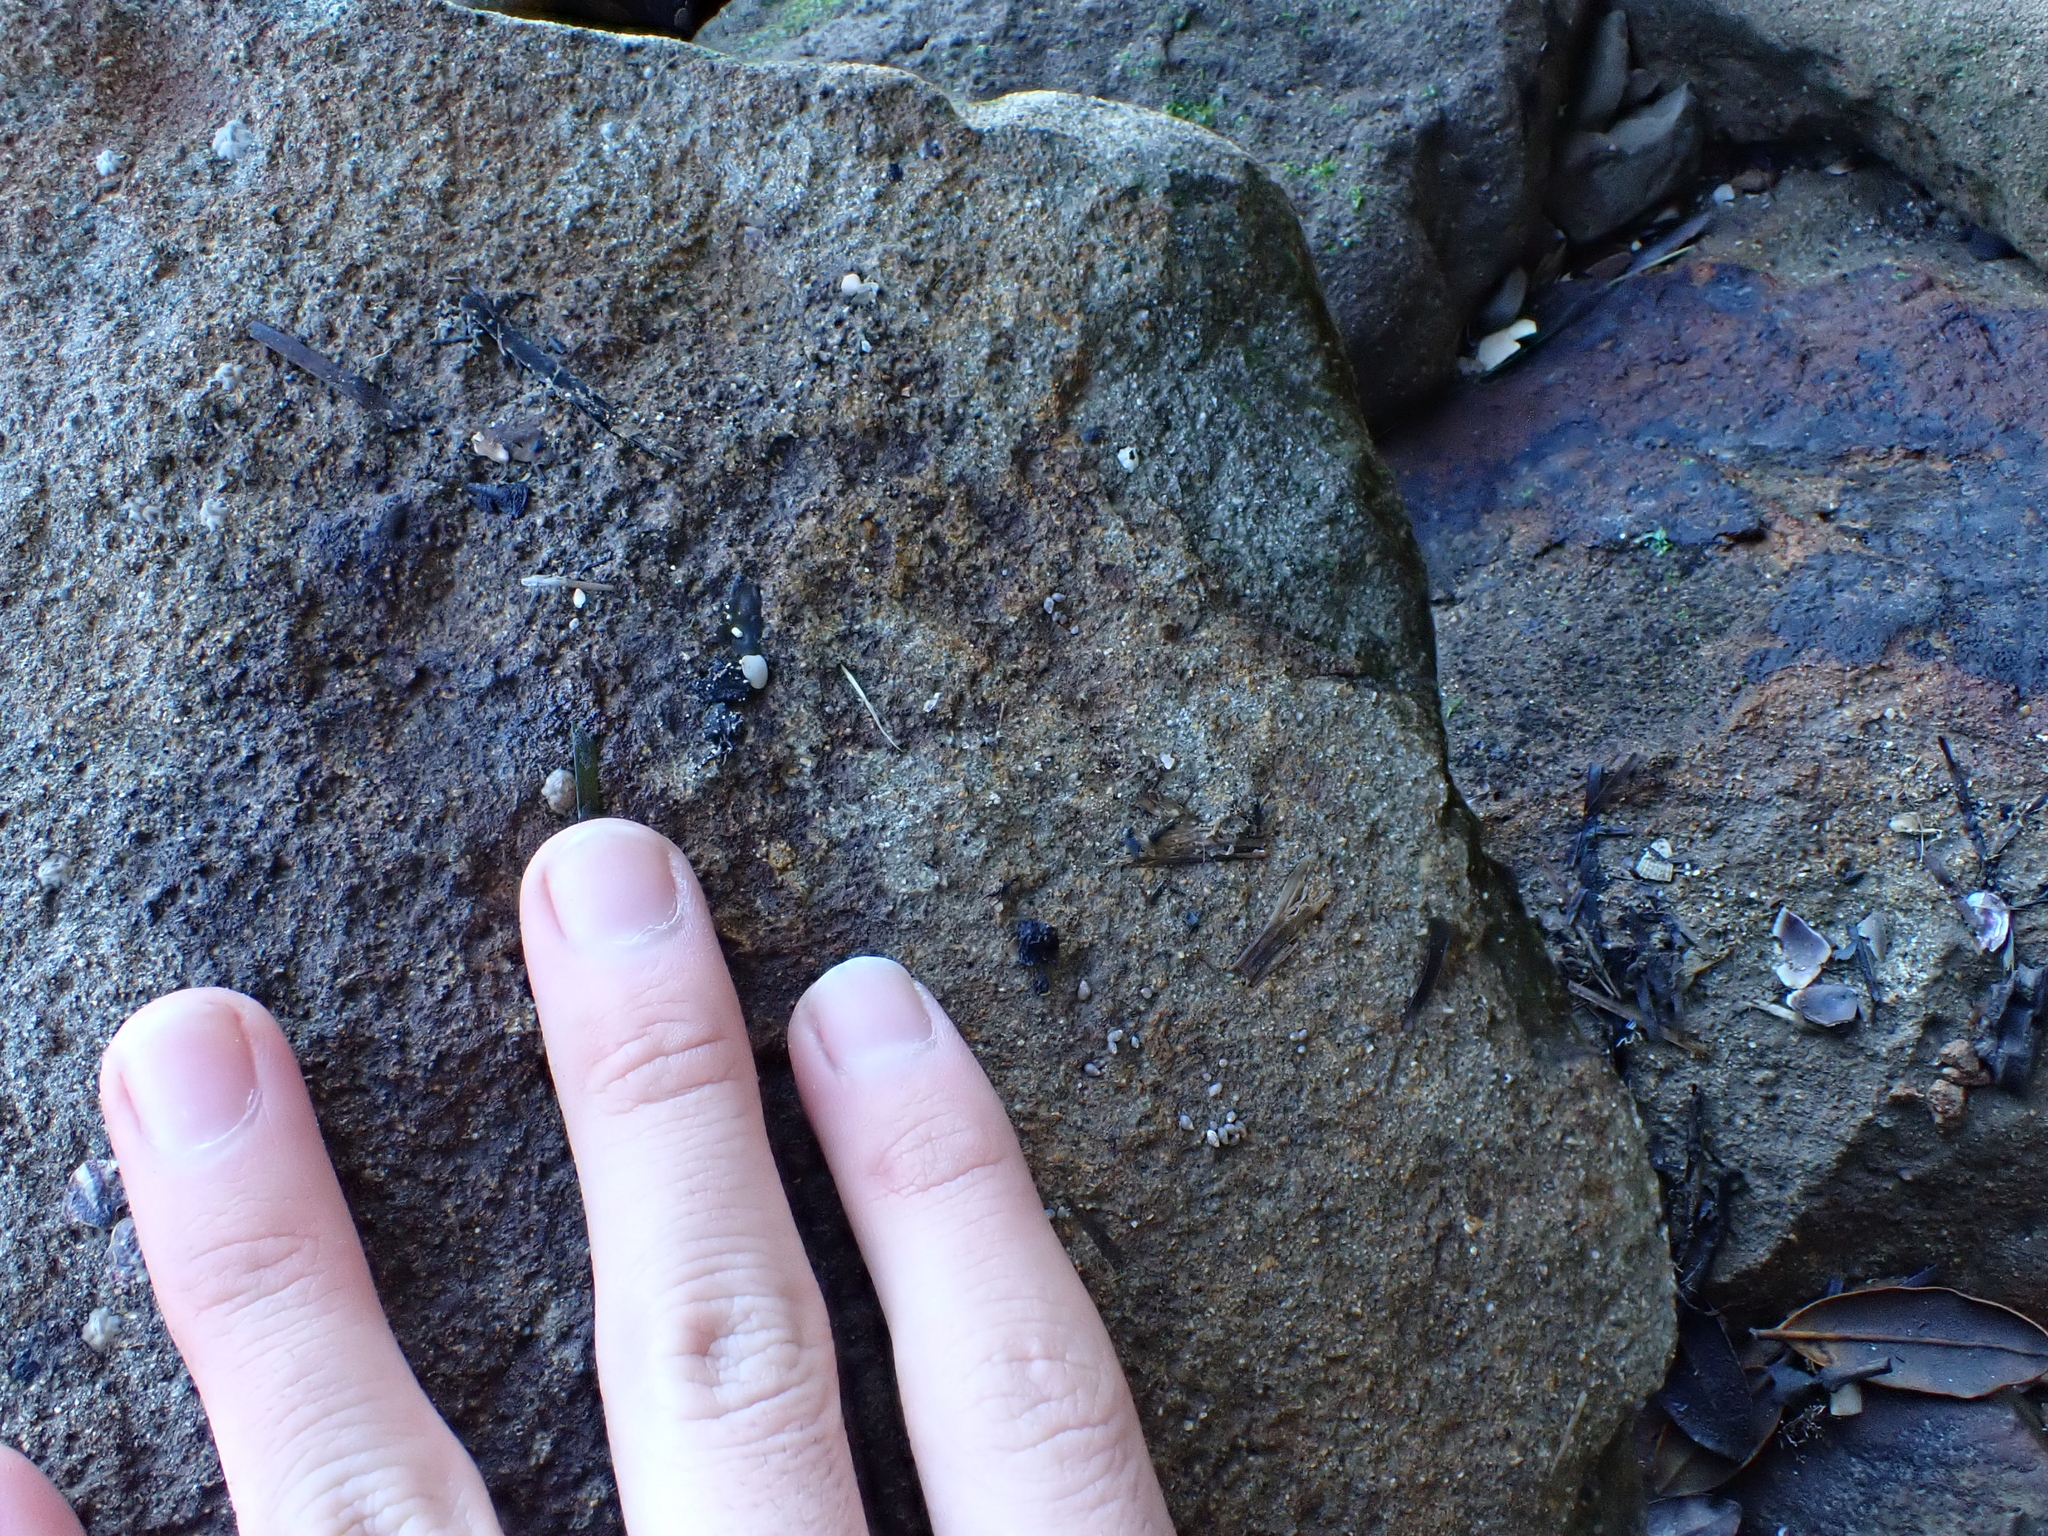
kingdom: Animalia
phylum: Mollusca
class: Gastropoda
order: Ellobiida
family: Ellobiidae
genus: Leuconopsis
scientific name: Leuconopsis obsoleta
